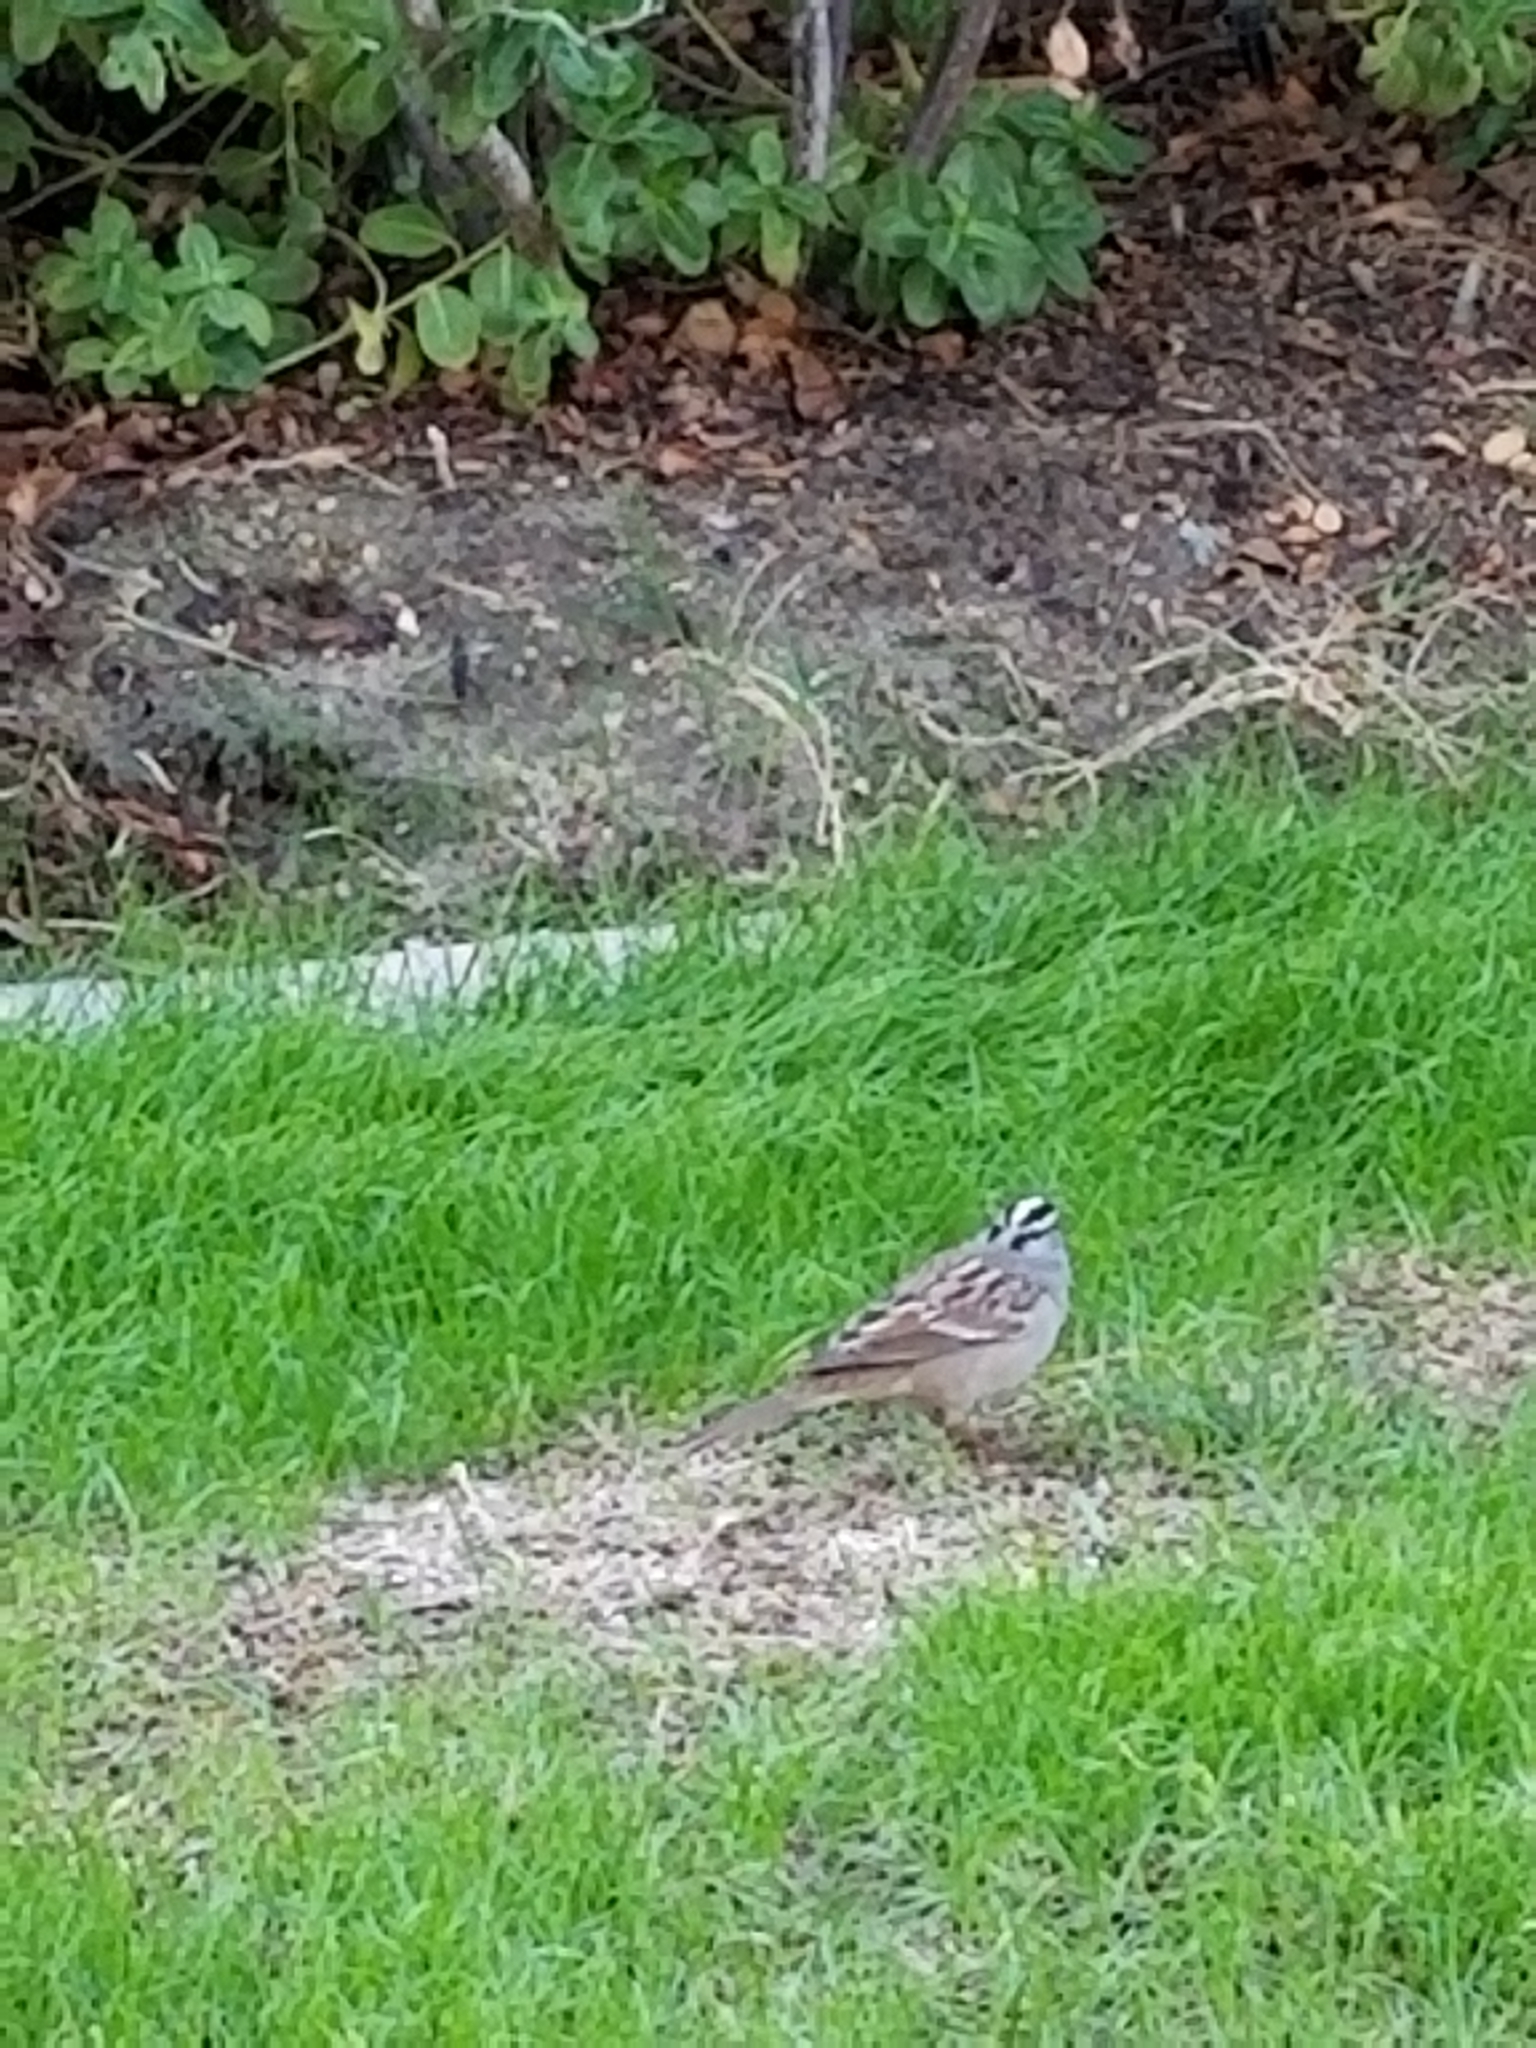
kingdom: Animalia
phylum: Chordata
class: Aves
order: Passeriformes
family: Passerellidae
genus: Zonotrichia
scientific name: Zonotrichia leucophrys
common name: White-crowned sparrow
